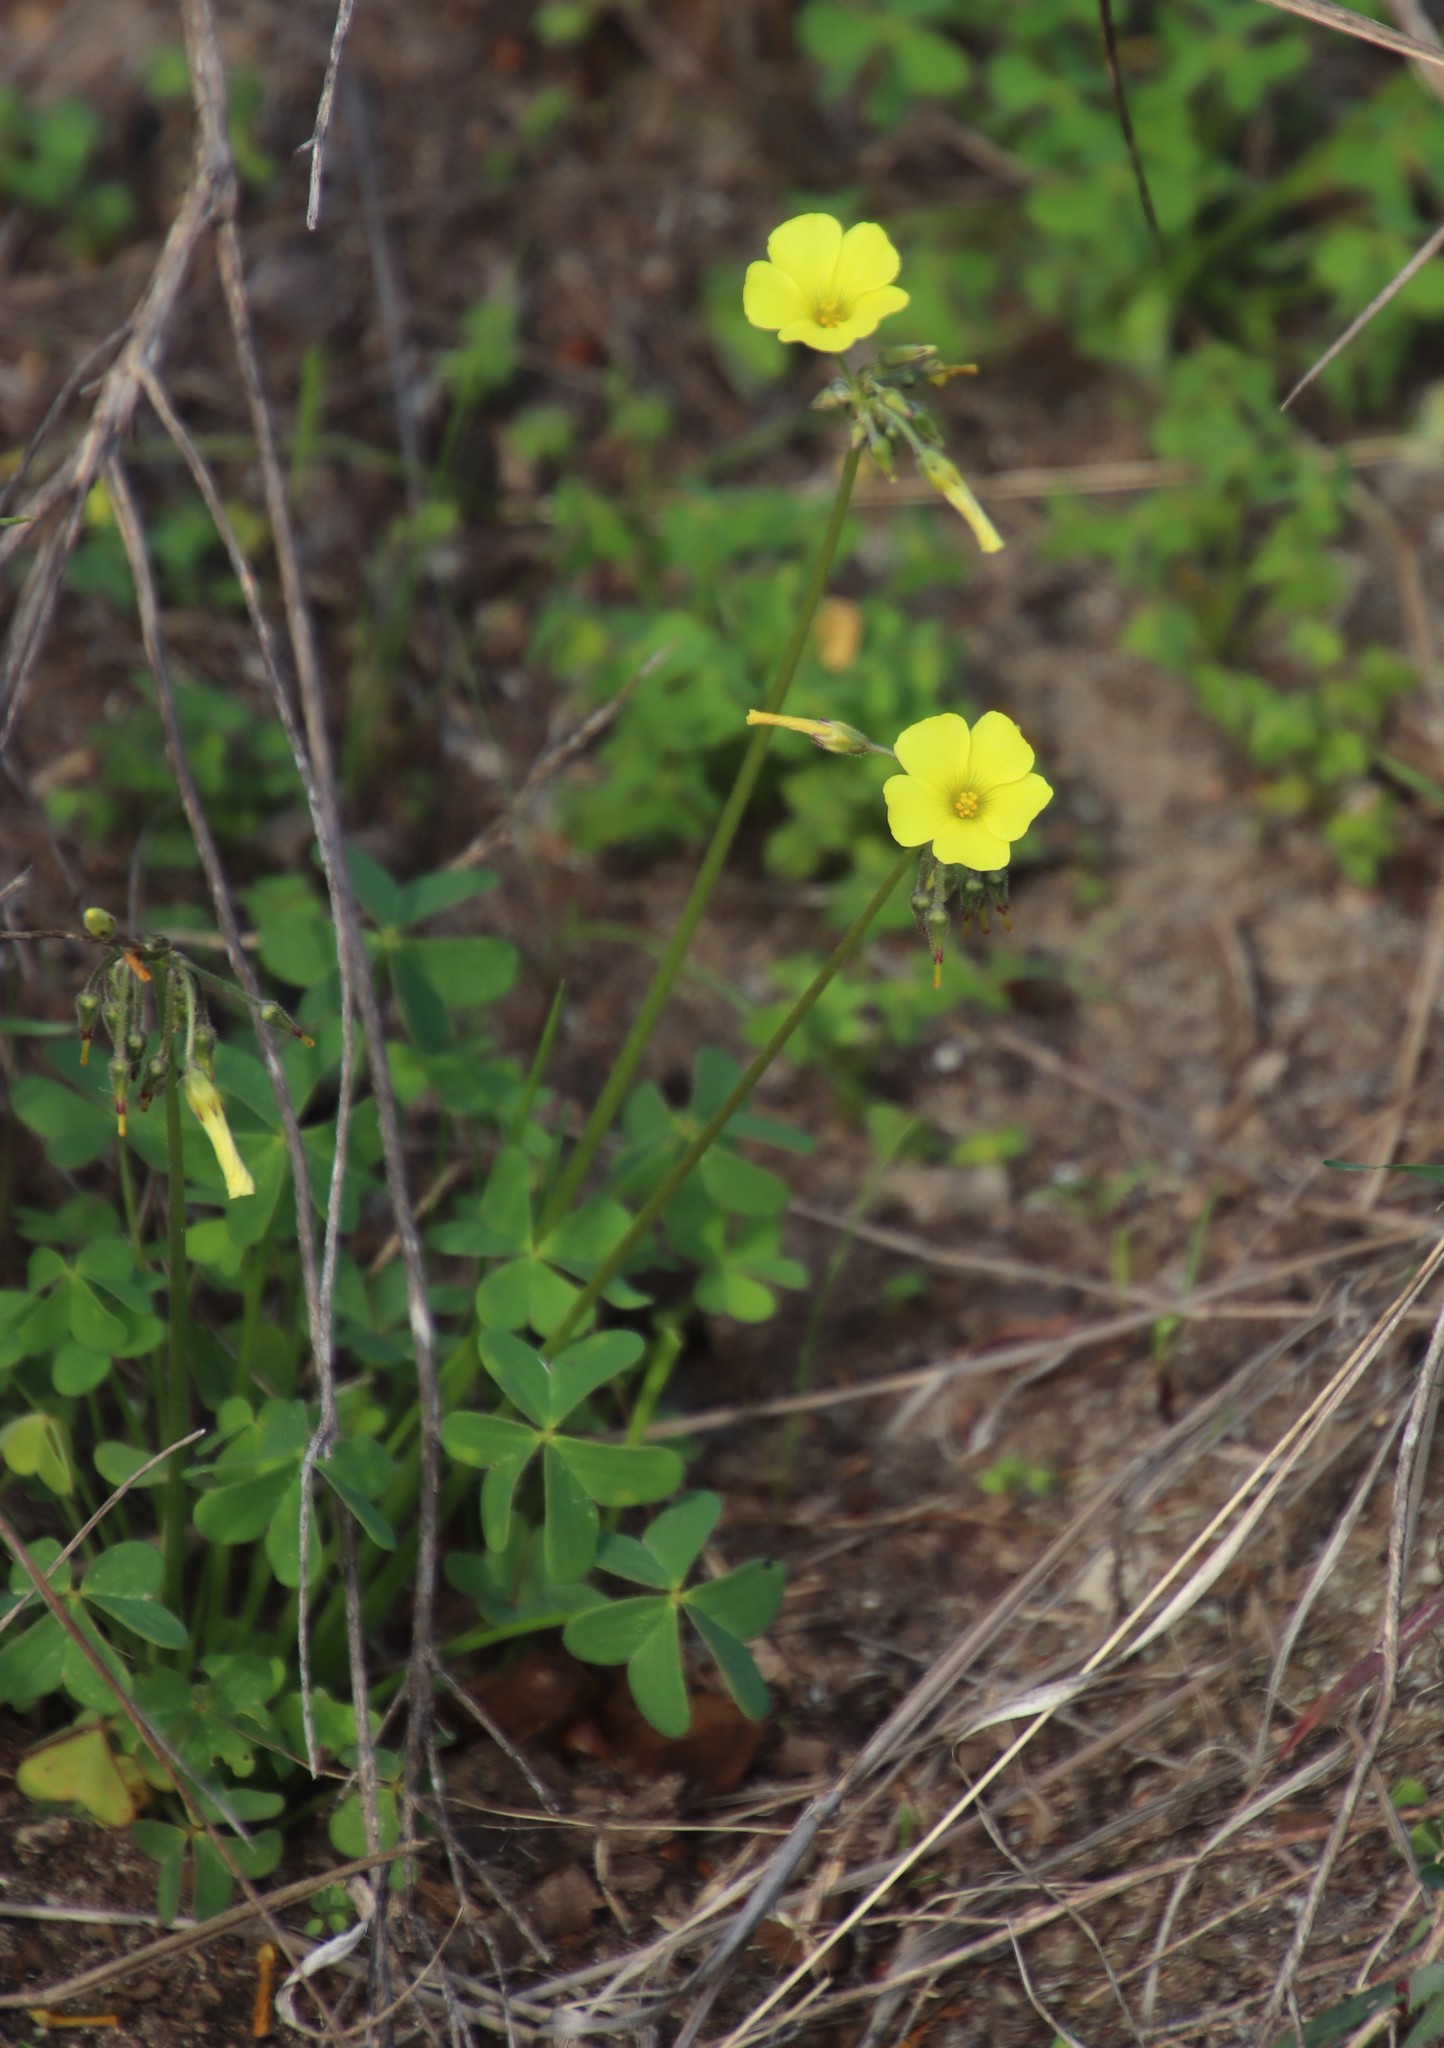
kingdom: Plantae
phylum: Tracheophyta
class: Magnoliopsida
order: Oxalidales
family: Oxalidaceae
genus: Oxalis
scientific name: Oxalis pes-caprae
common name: Bermuda-buttercup
